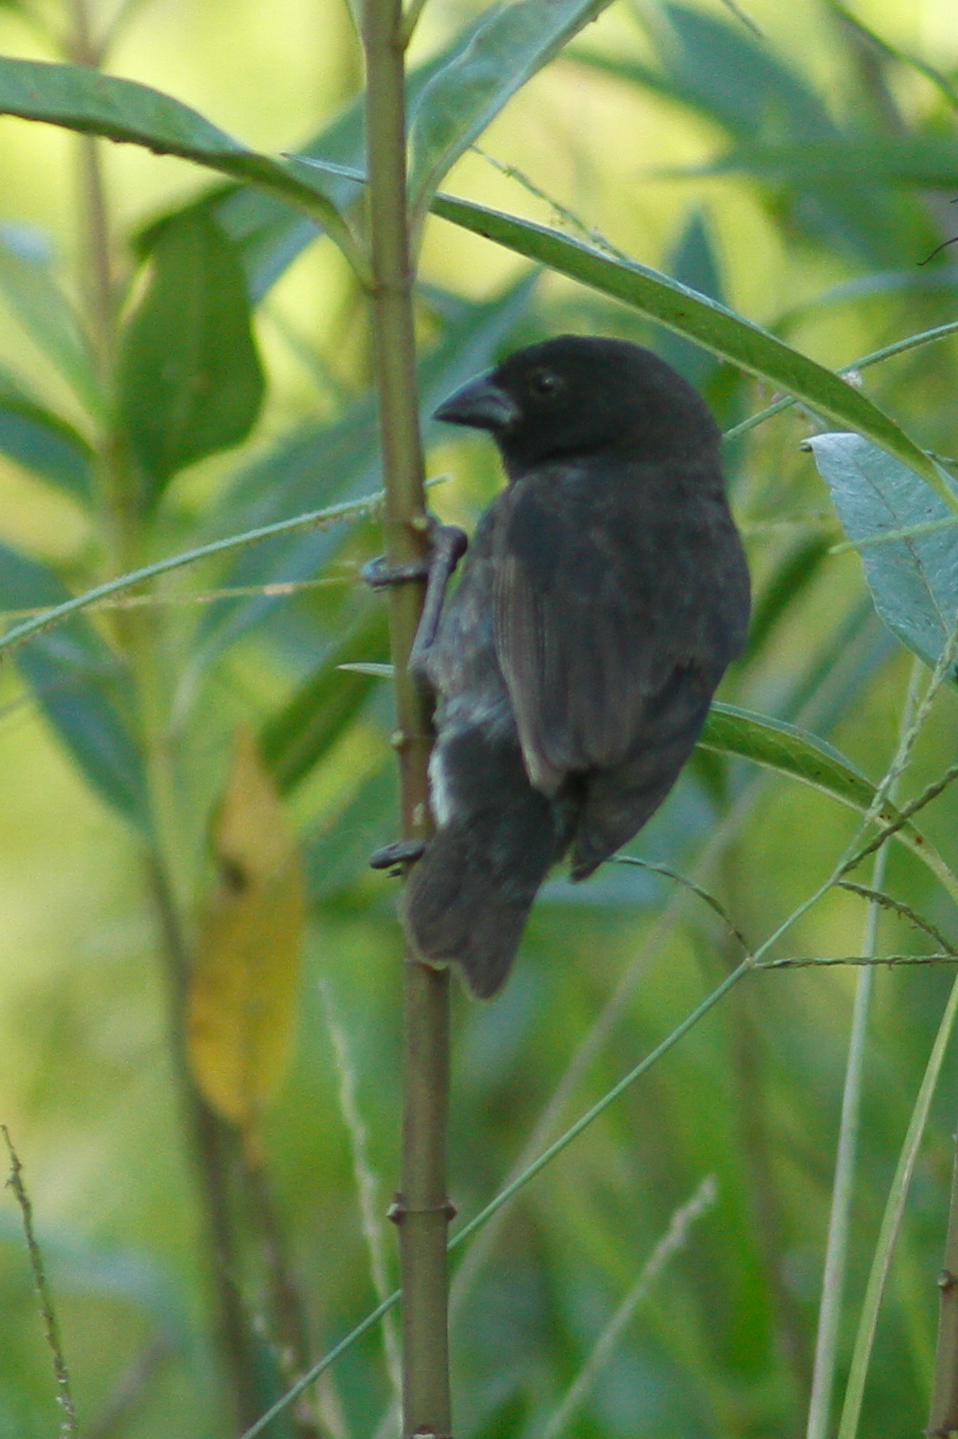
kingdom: Animalia
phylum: Chordata
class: Aves
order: Passeriformes
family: Thraupidae
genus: Geospiza
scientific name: Geospiza fuliginosa
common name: Small ground finch
